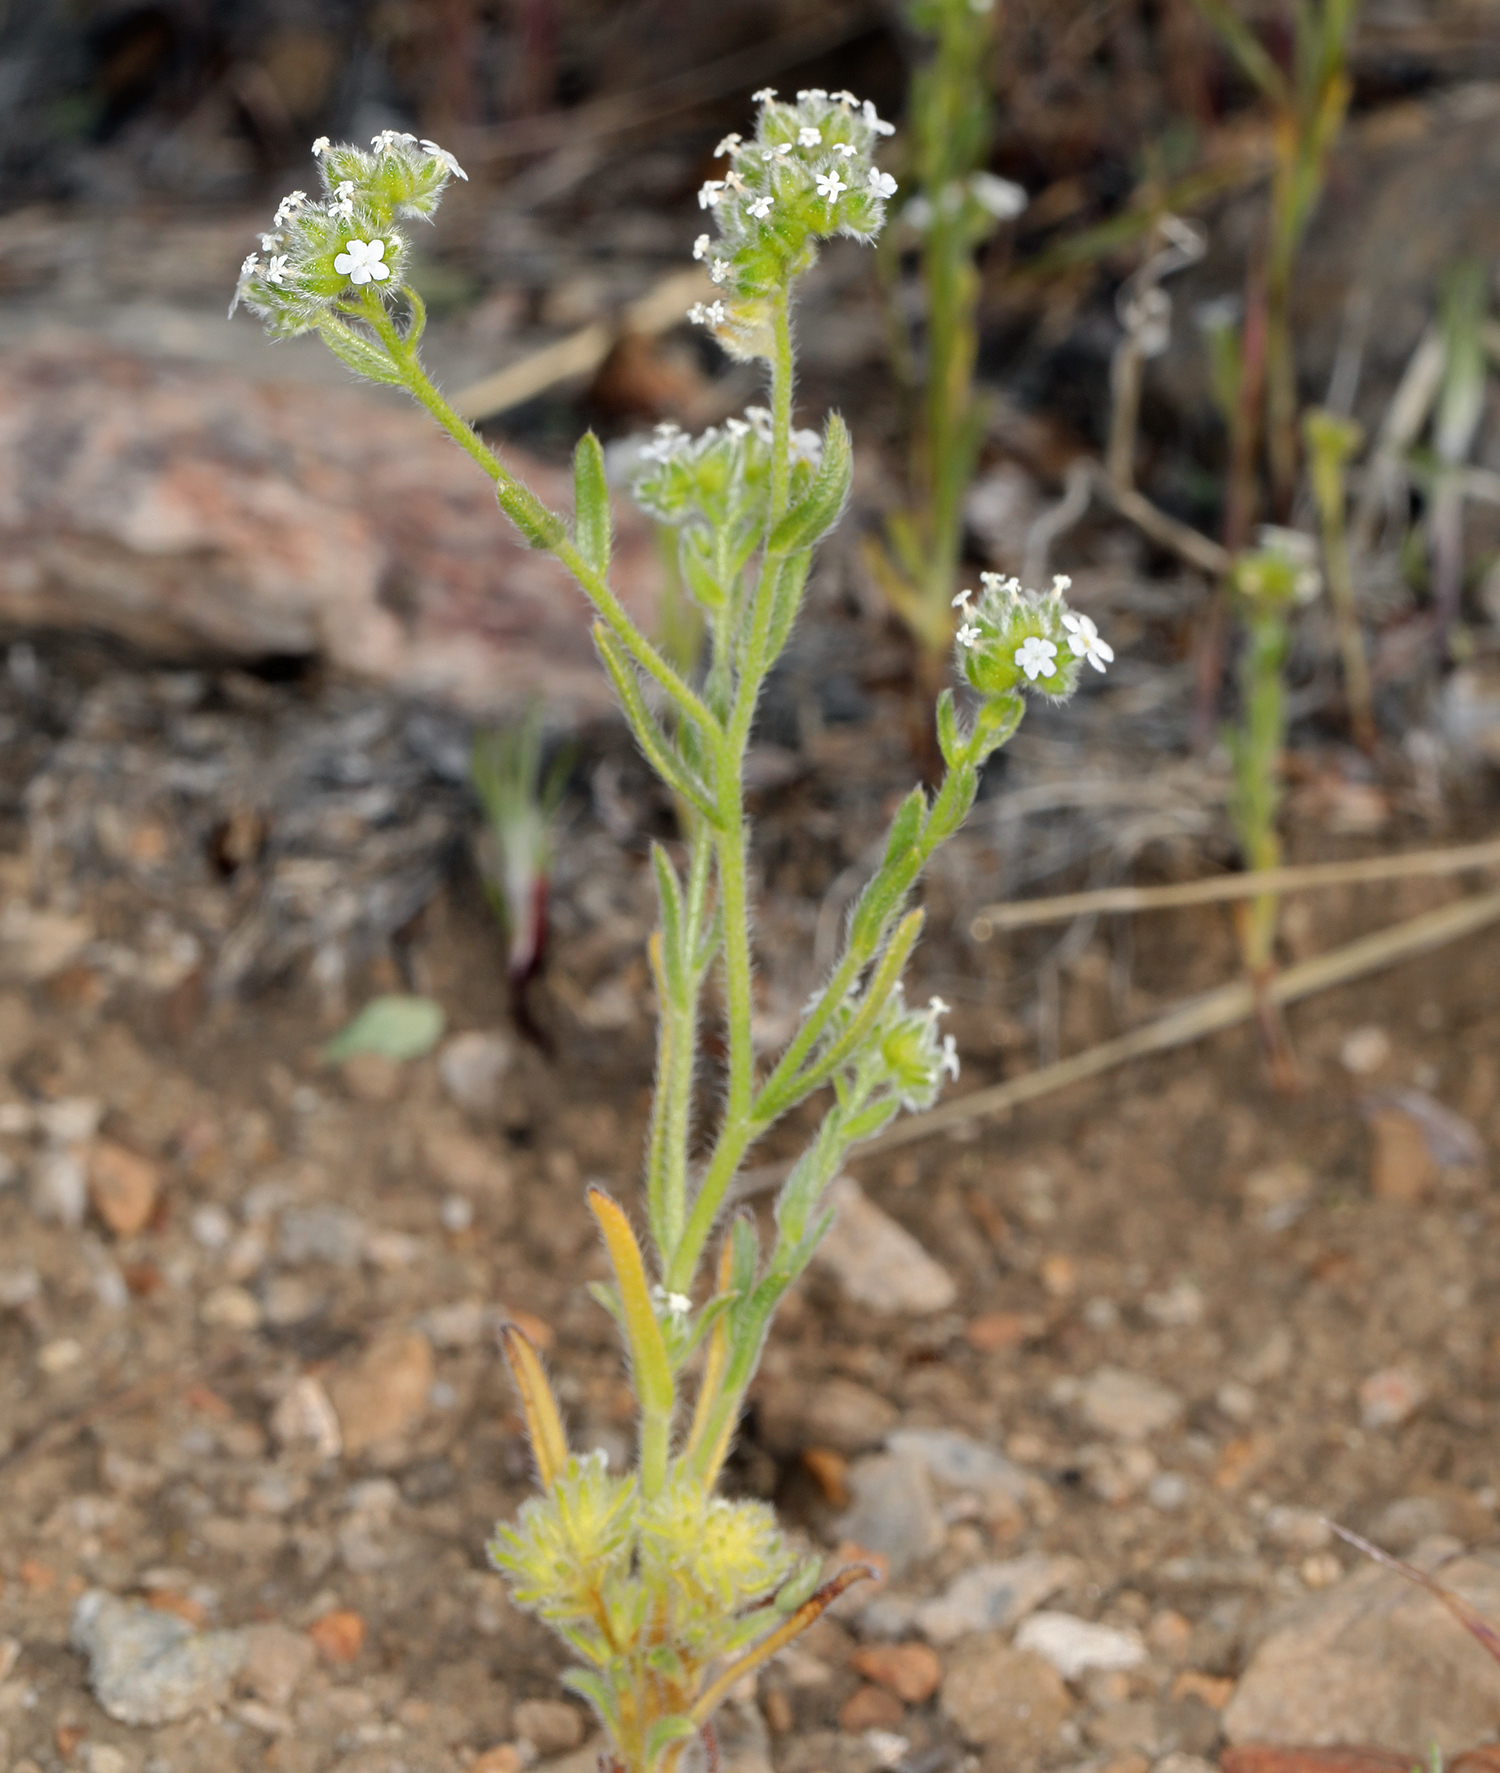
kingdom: Plantae
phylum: Tracheophyta
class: Magnoliopsida
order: Boraginales
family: Boraginaceae
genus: Cryptantha
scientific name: Cryptantha pterocarya
